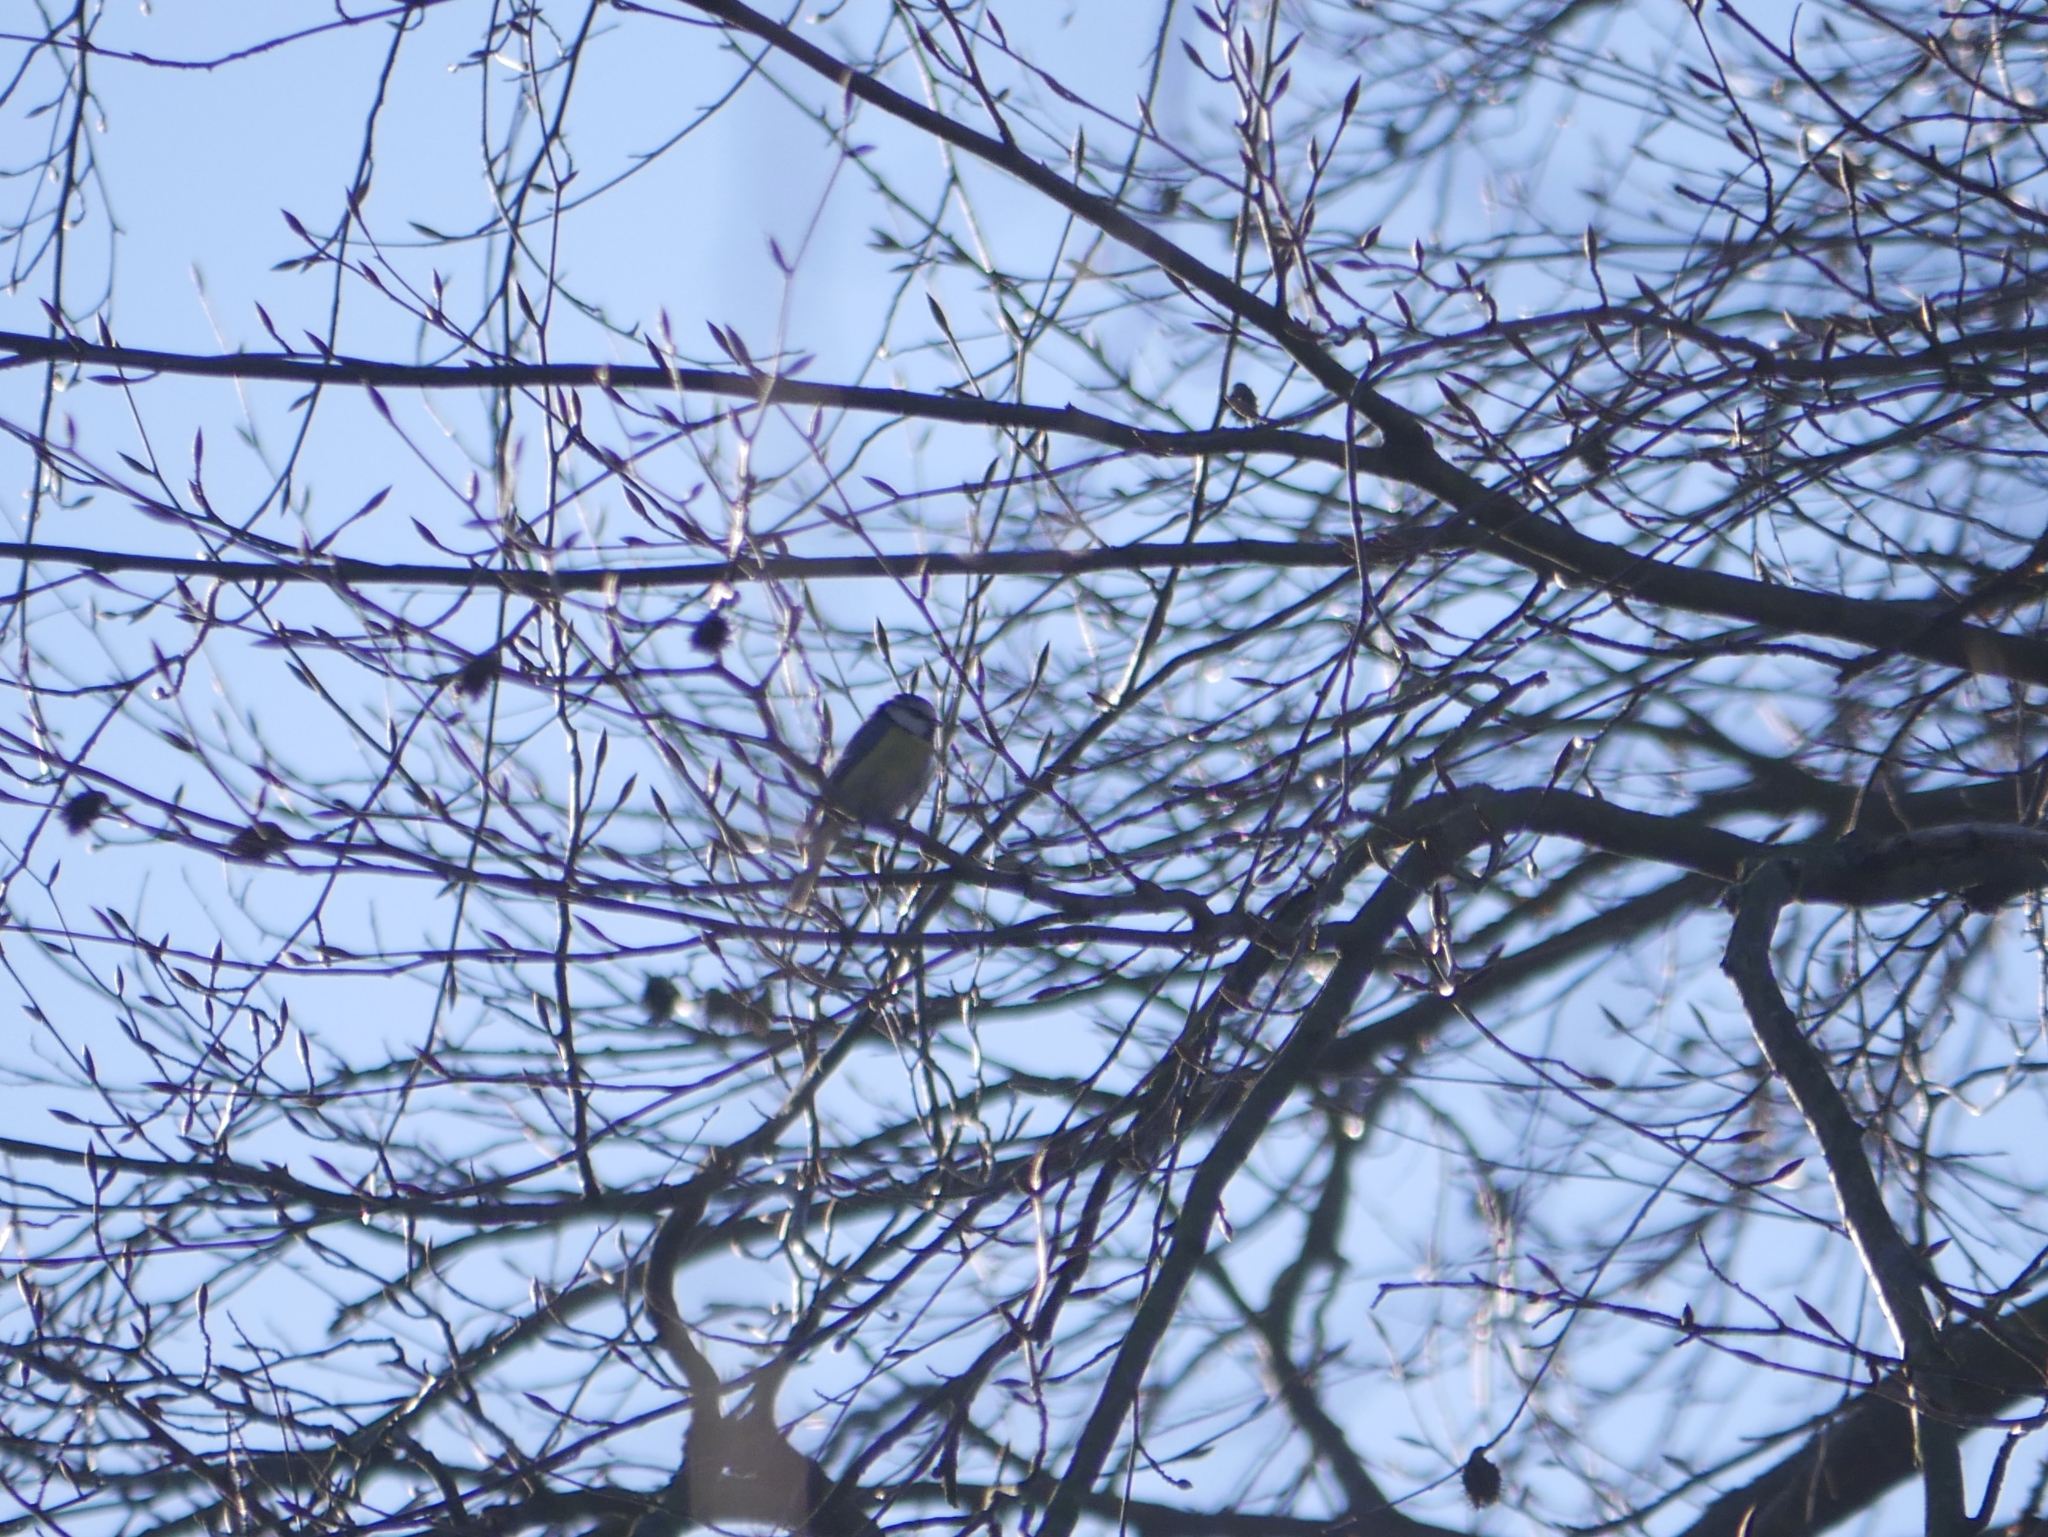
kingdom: Animalia
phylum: Chordata
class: Aves
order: Passeriformes
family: Paridae
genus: Cyanistes
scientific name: Cyanistes caeruleus
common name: Eurasian blue tit
